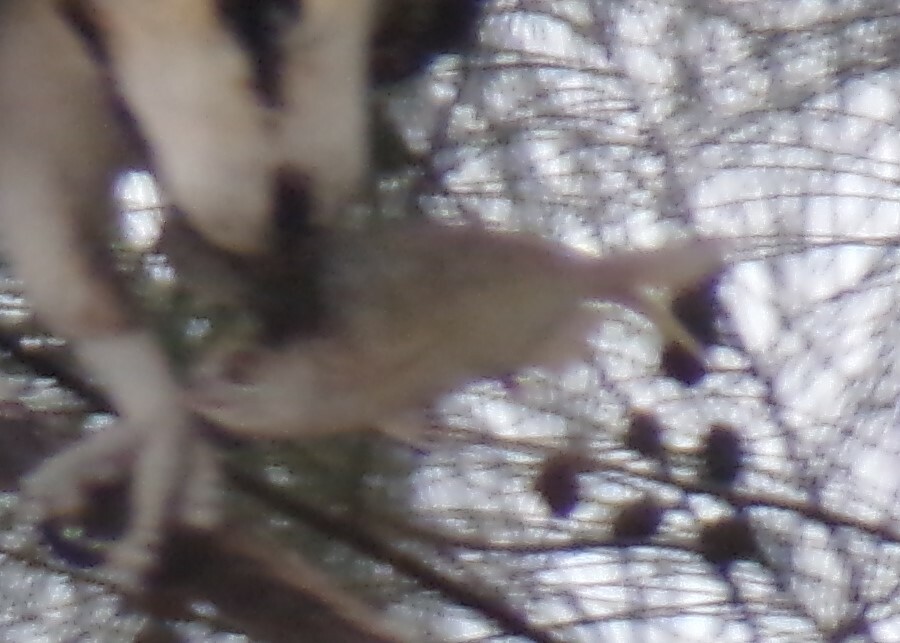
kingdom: Animalia
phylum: Chordata
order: Perciformes
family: Sparidae
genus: Lagodon
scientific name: Lagodon rhomboides
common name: Pinfish
